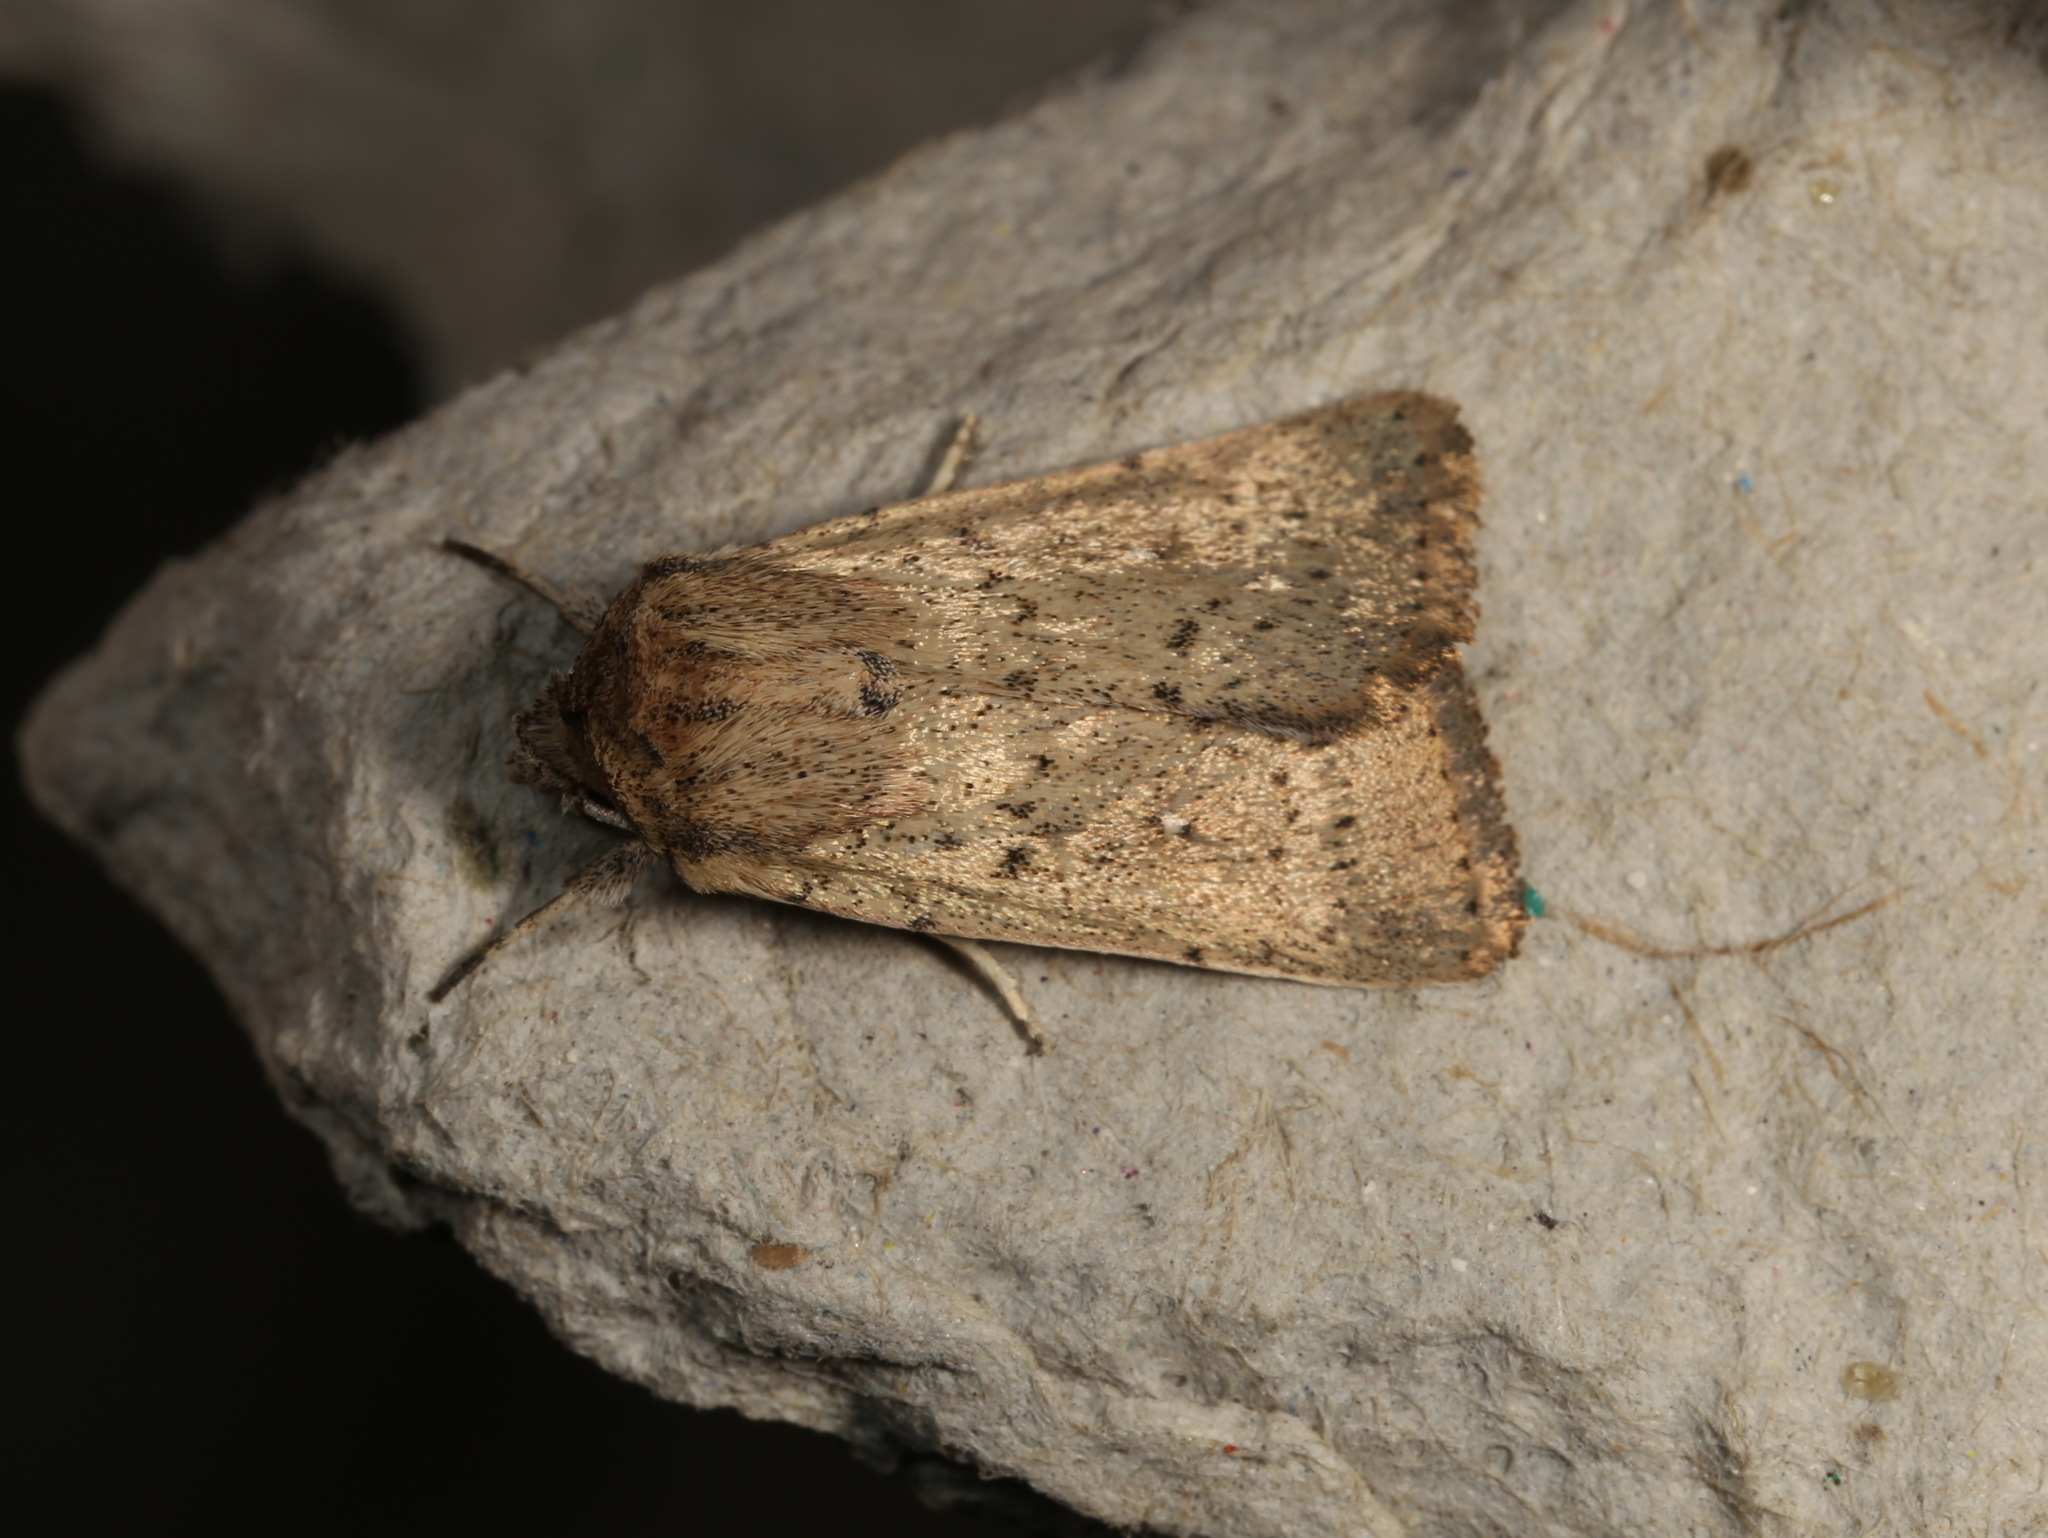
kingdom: Animalia
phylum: Arthropoda
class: Insecta
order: Lepidoptera
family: Noctuidae
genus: Leucania
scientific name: Leucania uda
